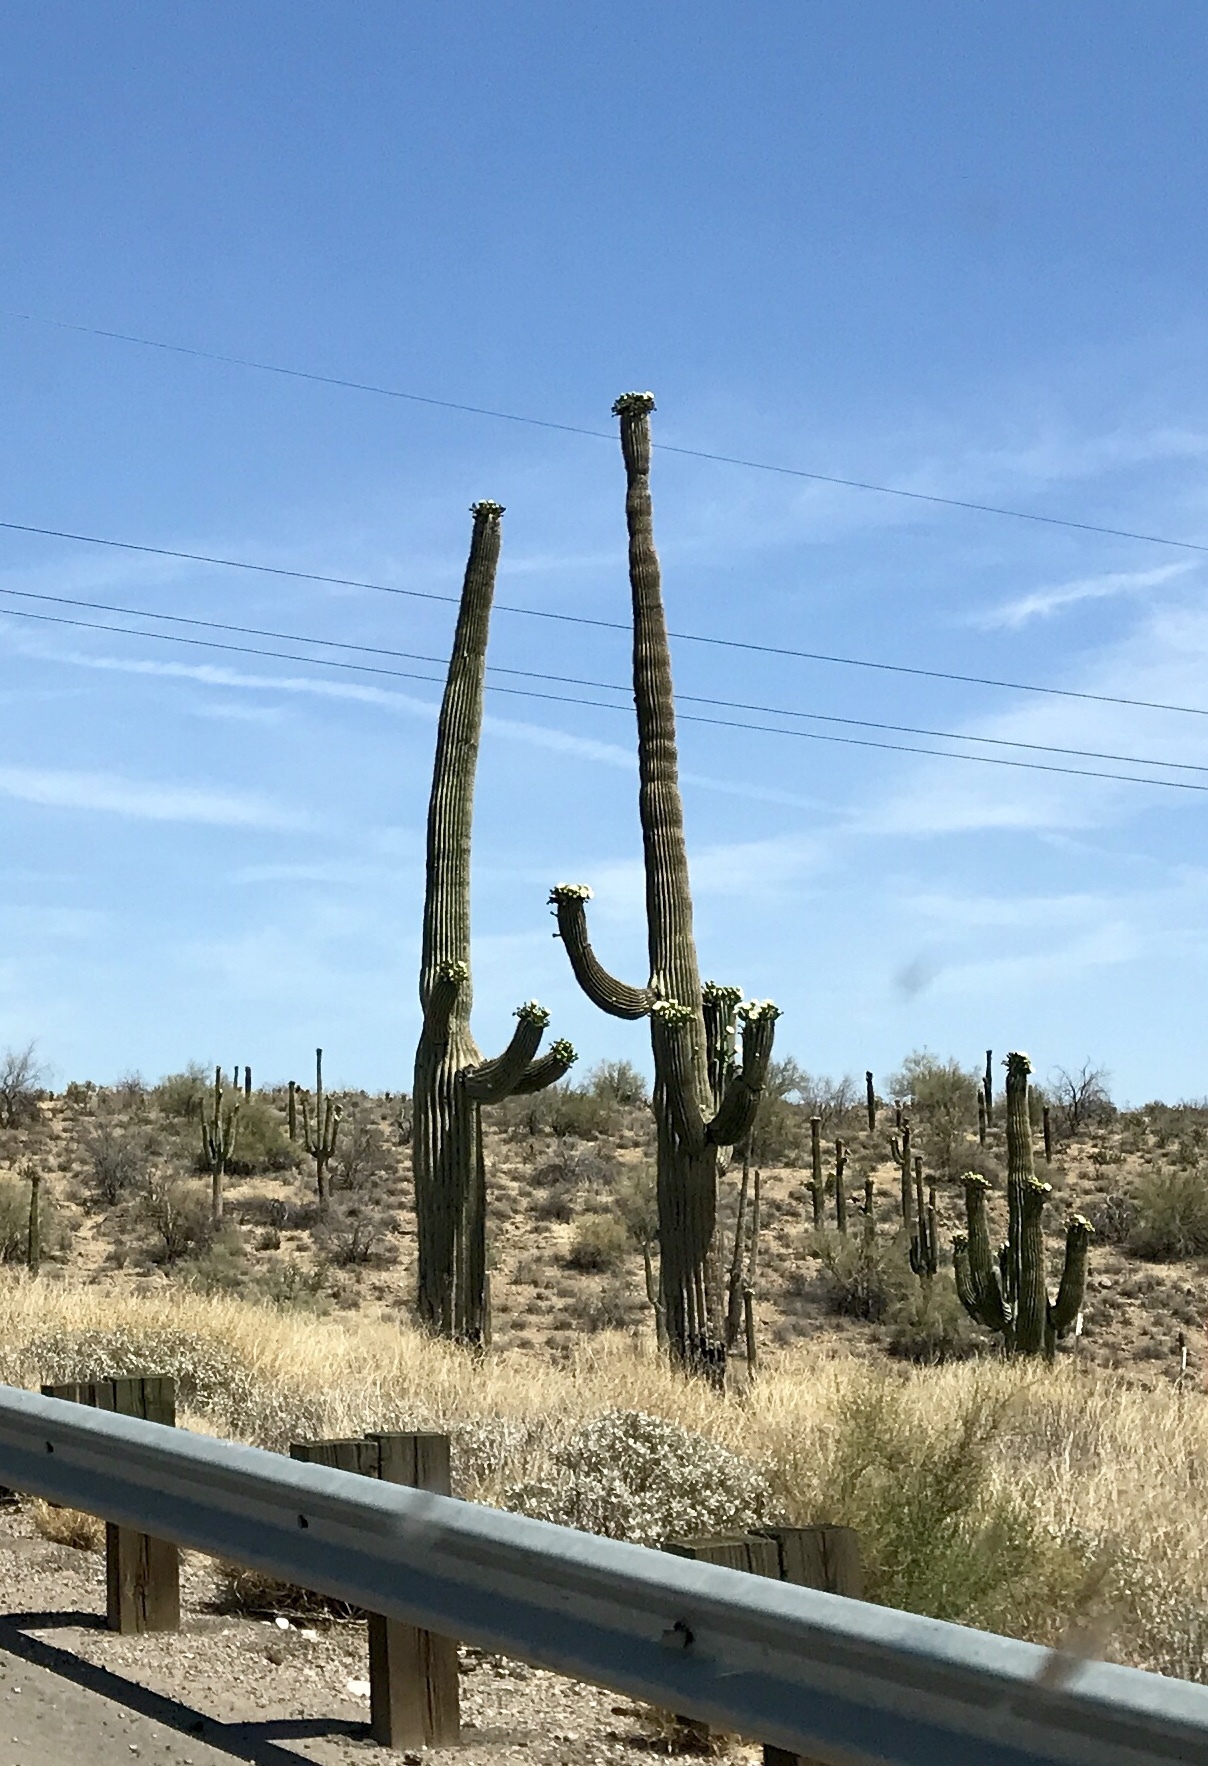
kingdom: Plantae
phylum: Tracheophyta
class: Magnoliopsida
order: Caryophyllales
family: Cactaceae
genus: Carnegiea
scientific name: Carnegiea gigantea
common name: Saguaro
